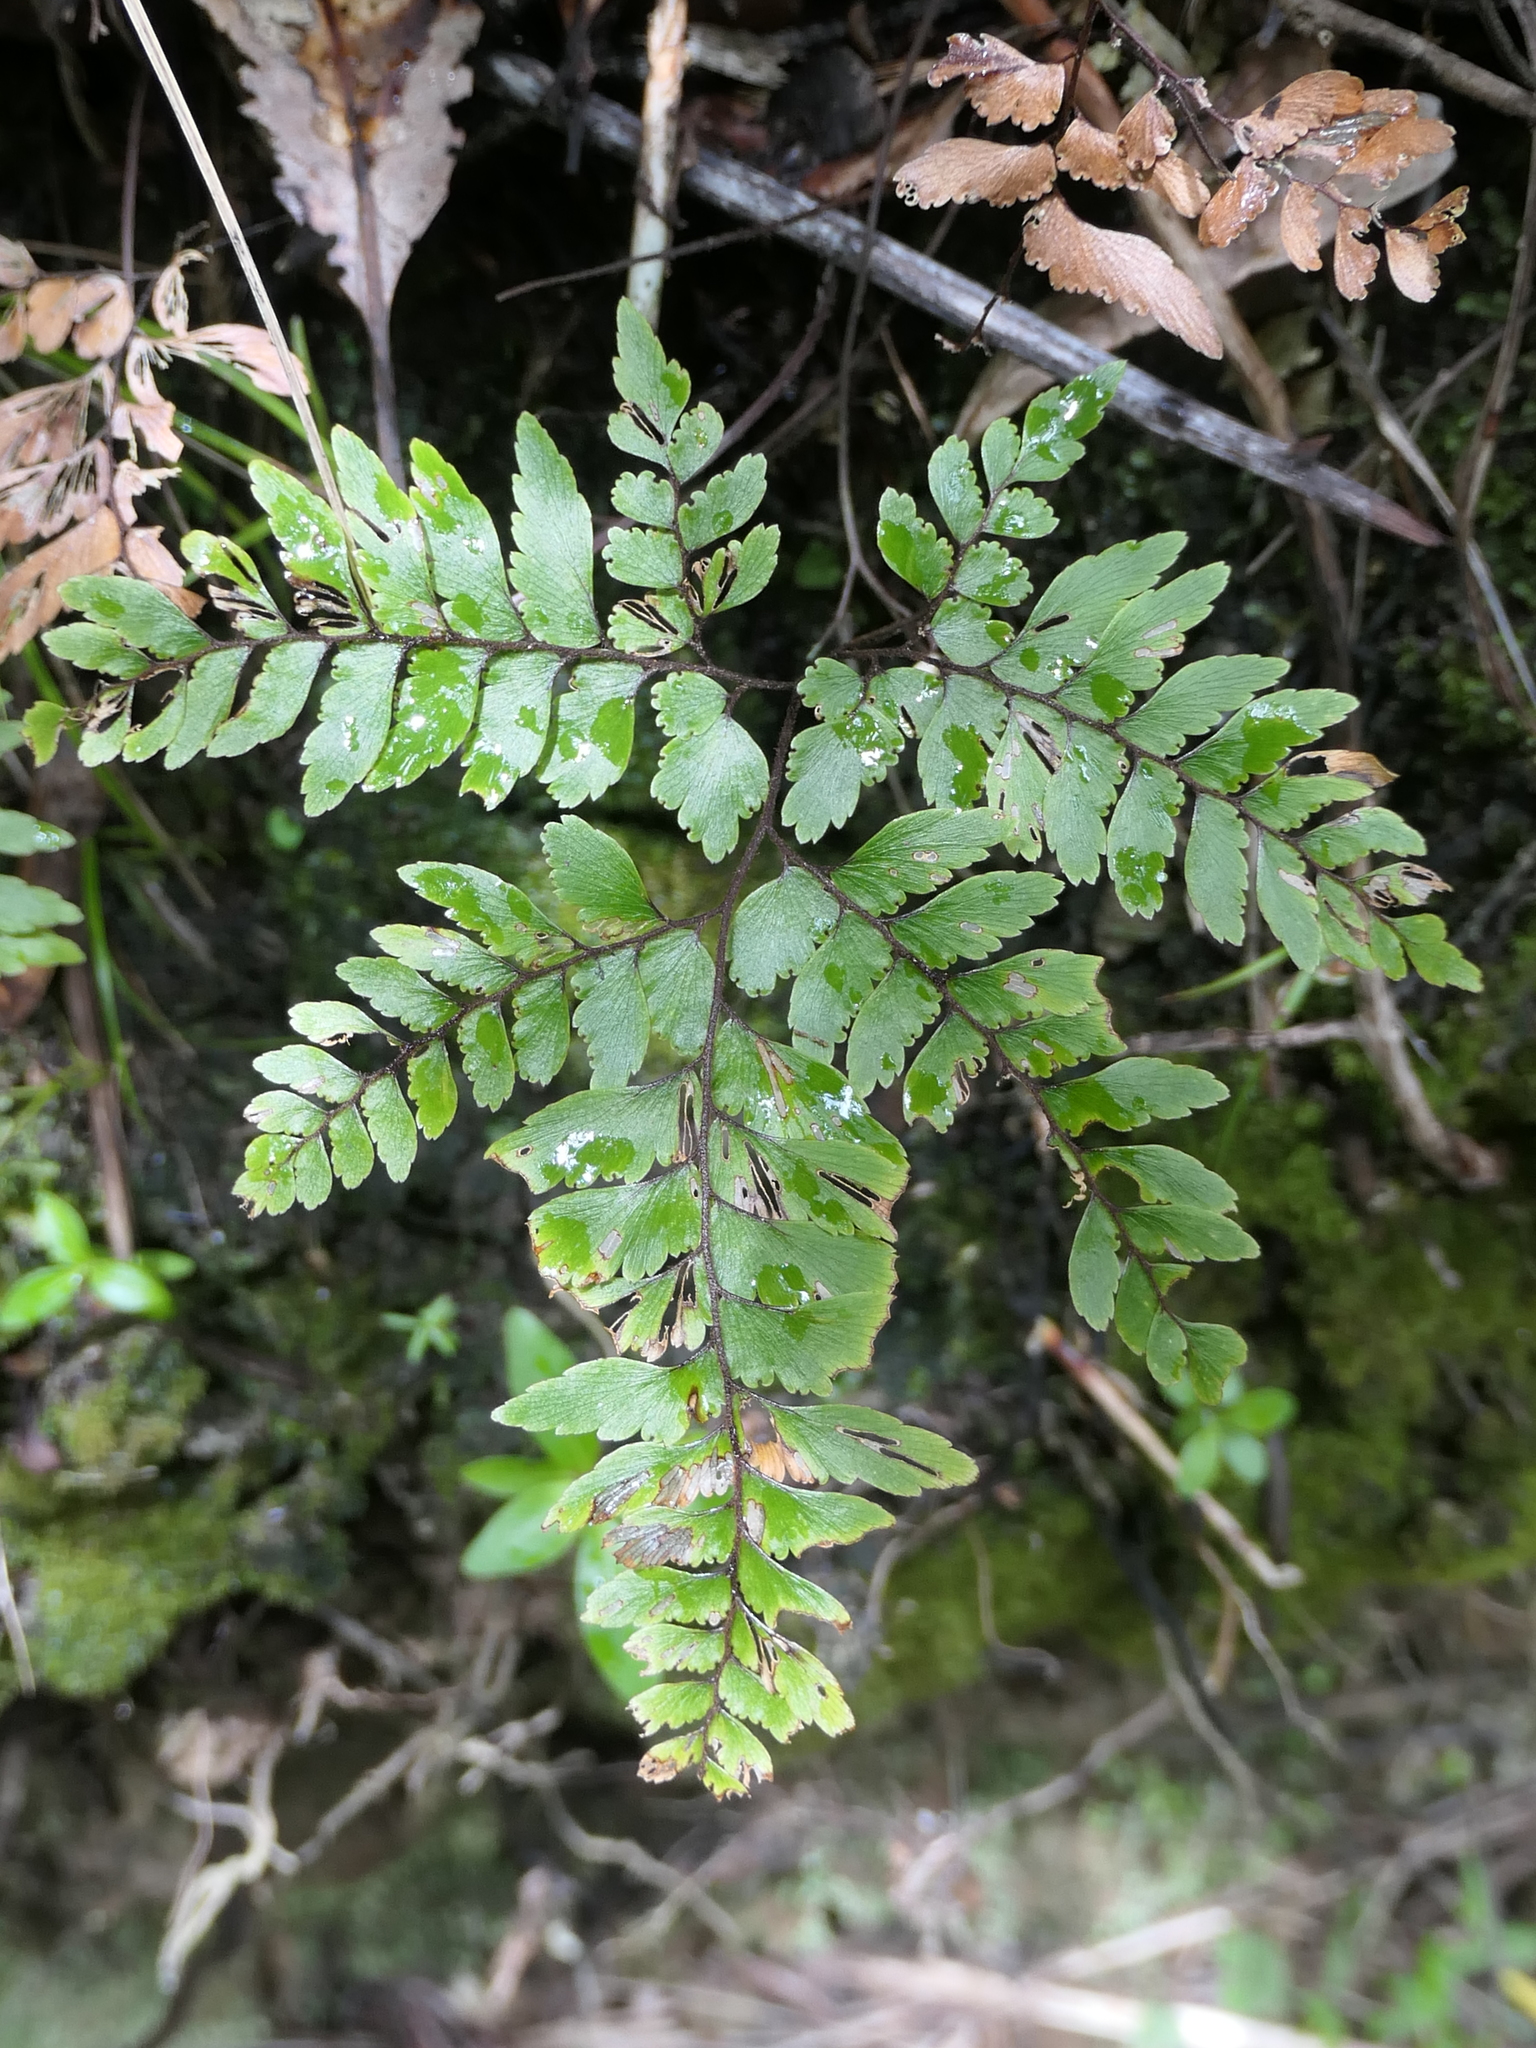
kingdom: Plantae
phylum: Tracheophyta
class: Polypodiopsida
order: Polypodiales
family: Pteridaceae
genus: Adiantum
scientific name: Adiantum fulvum
